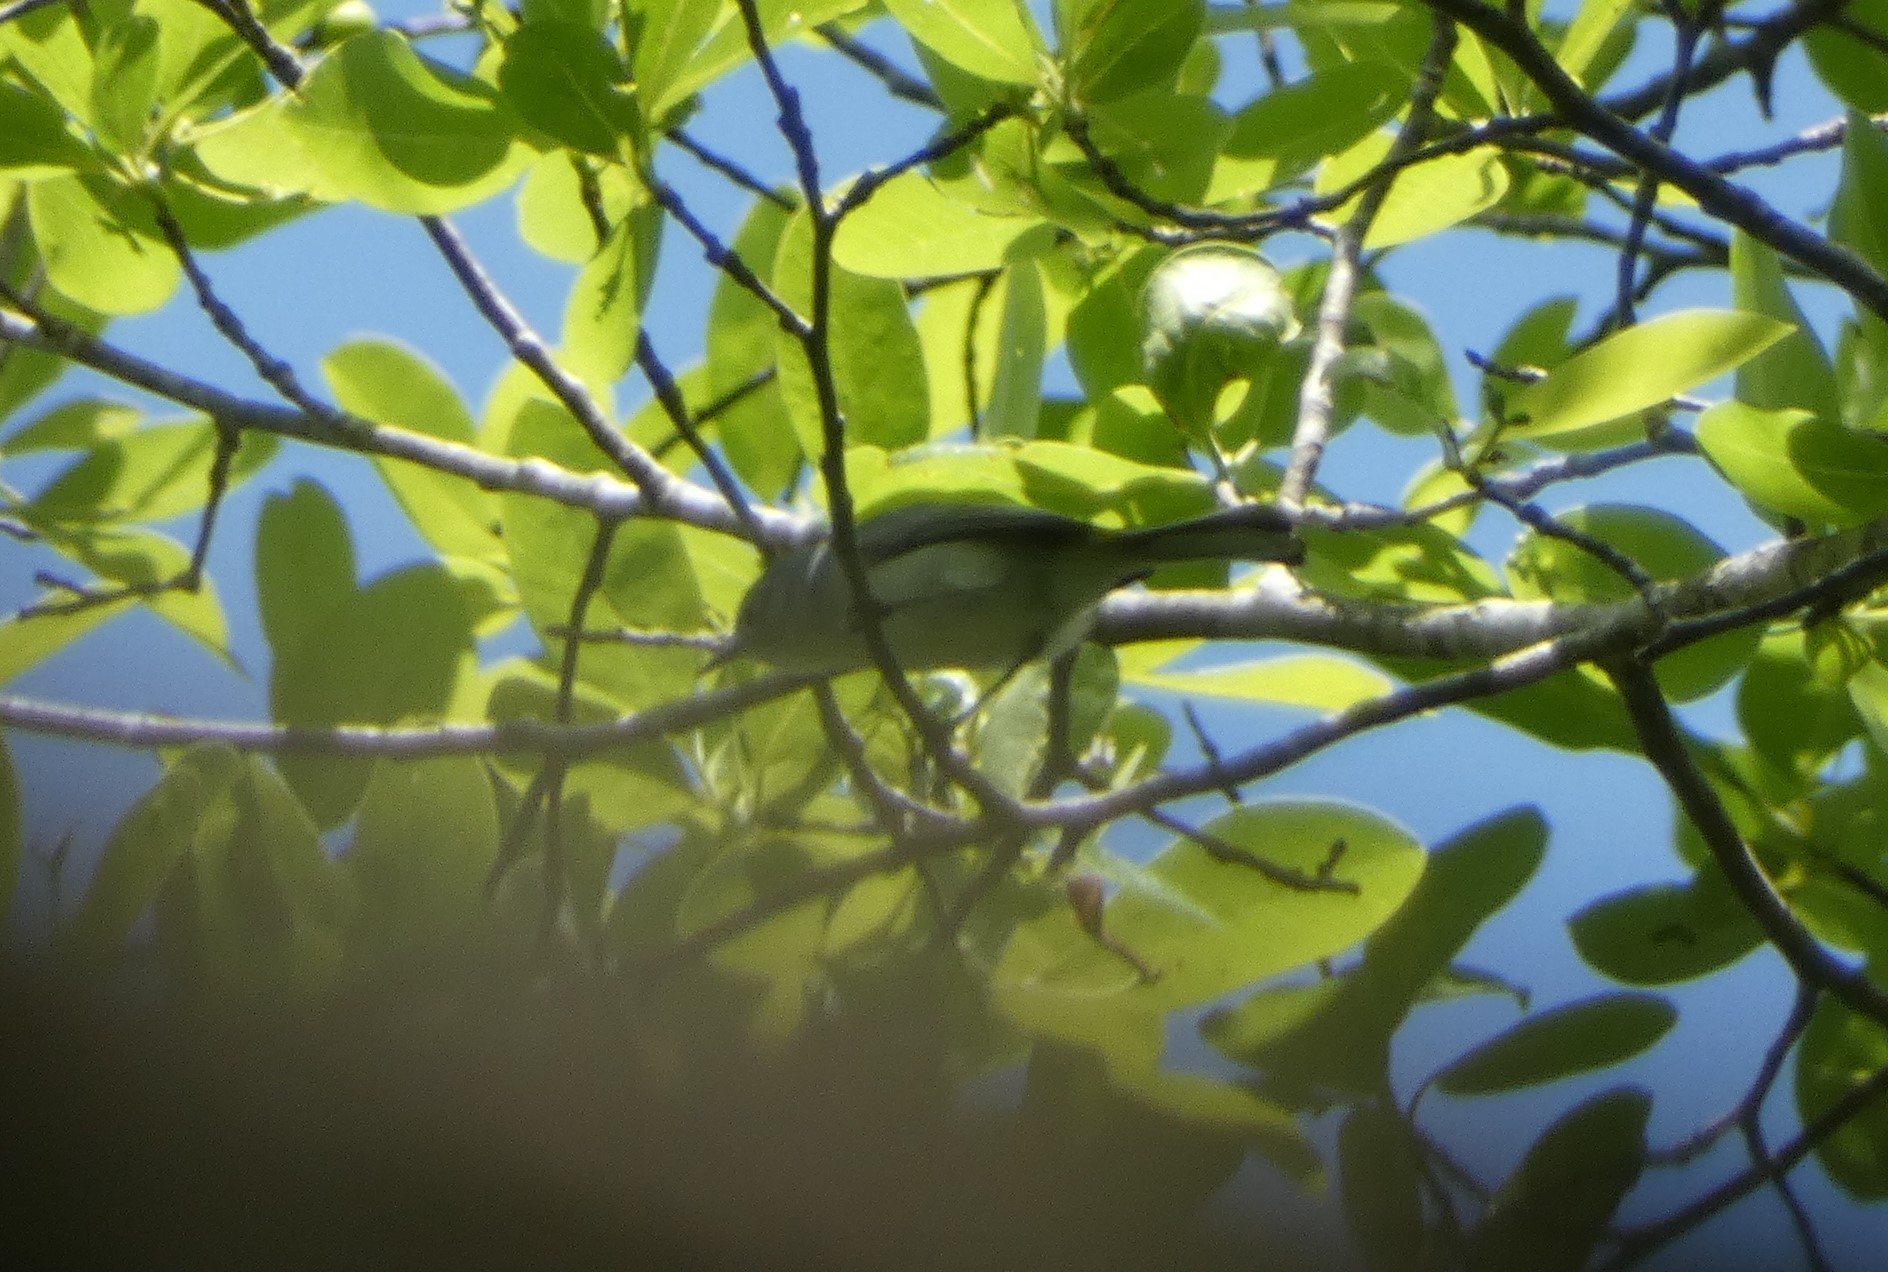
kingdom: Animalia
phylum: Chordata
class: Aves
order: Passeriformes
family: Polioptilidae
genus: Polioptila
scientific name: Polioptila caerulea
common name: Blue-gray gnatcatcher
